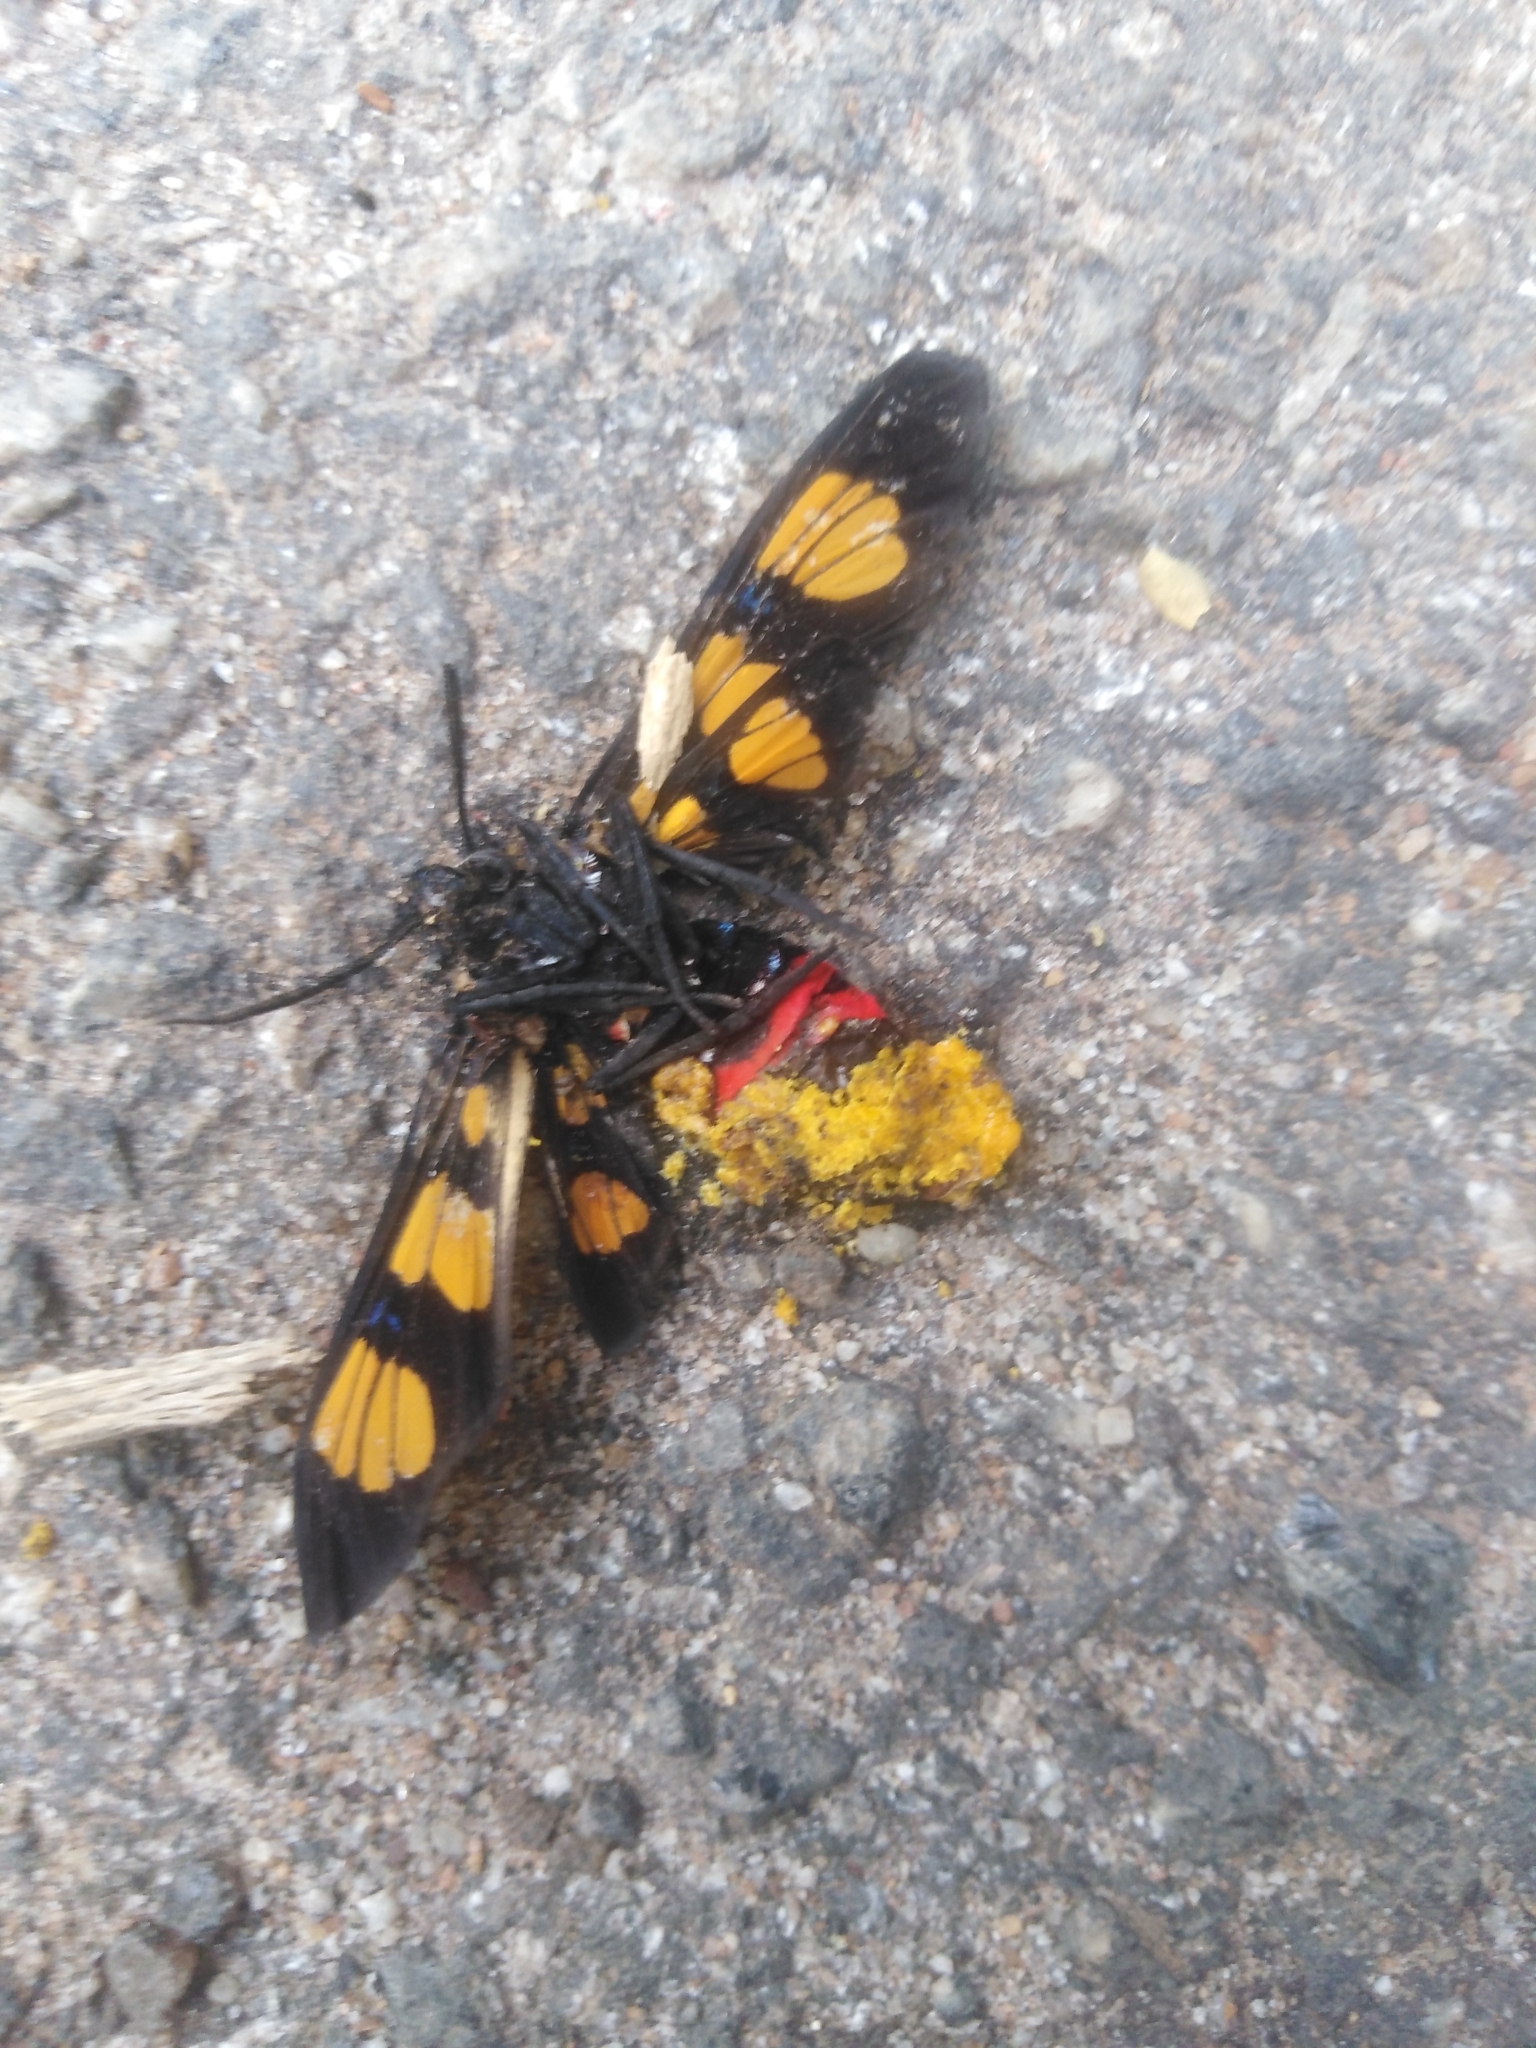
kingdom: Animalia
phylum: Arthropoda
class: Insecta
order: Lepidoptera
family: Erebidae
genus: Euchromia
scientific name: Euchromia polymena
